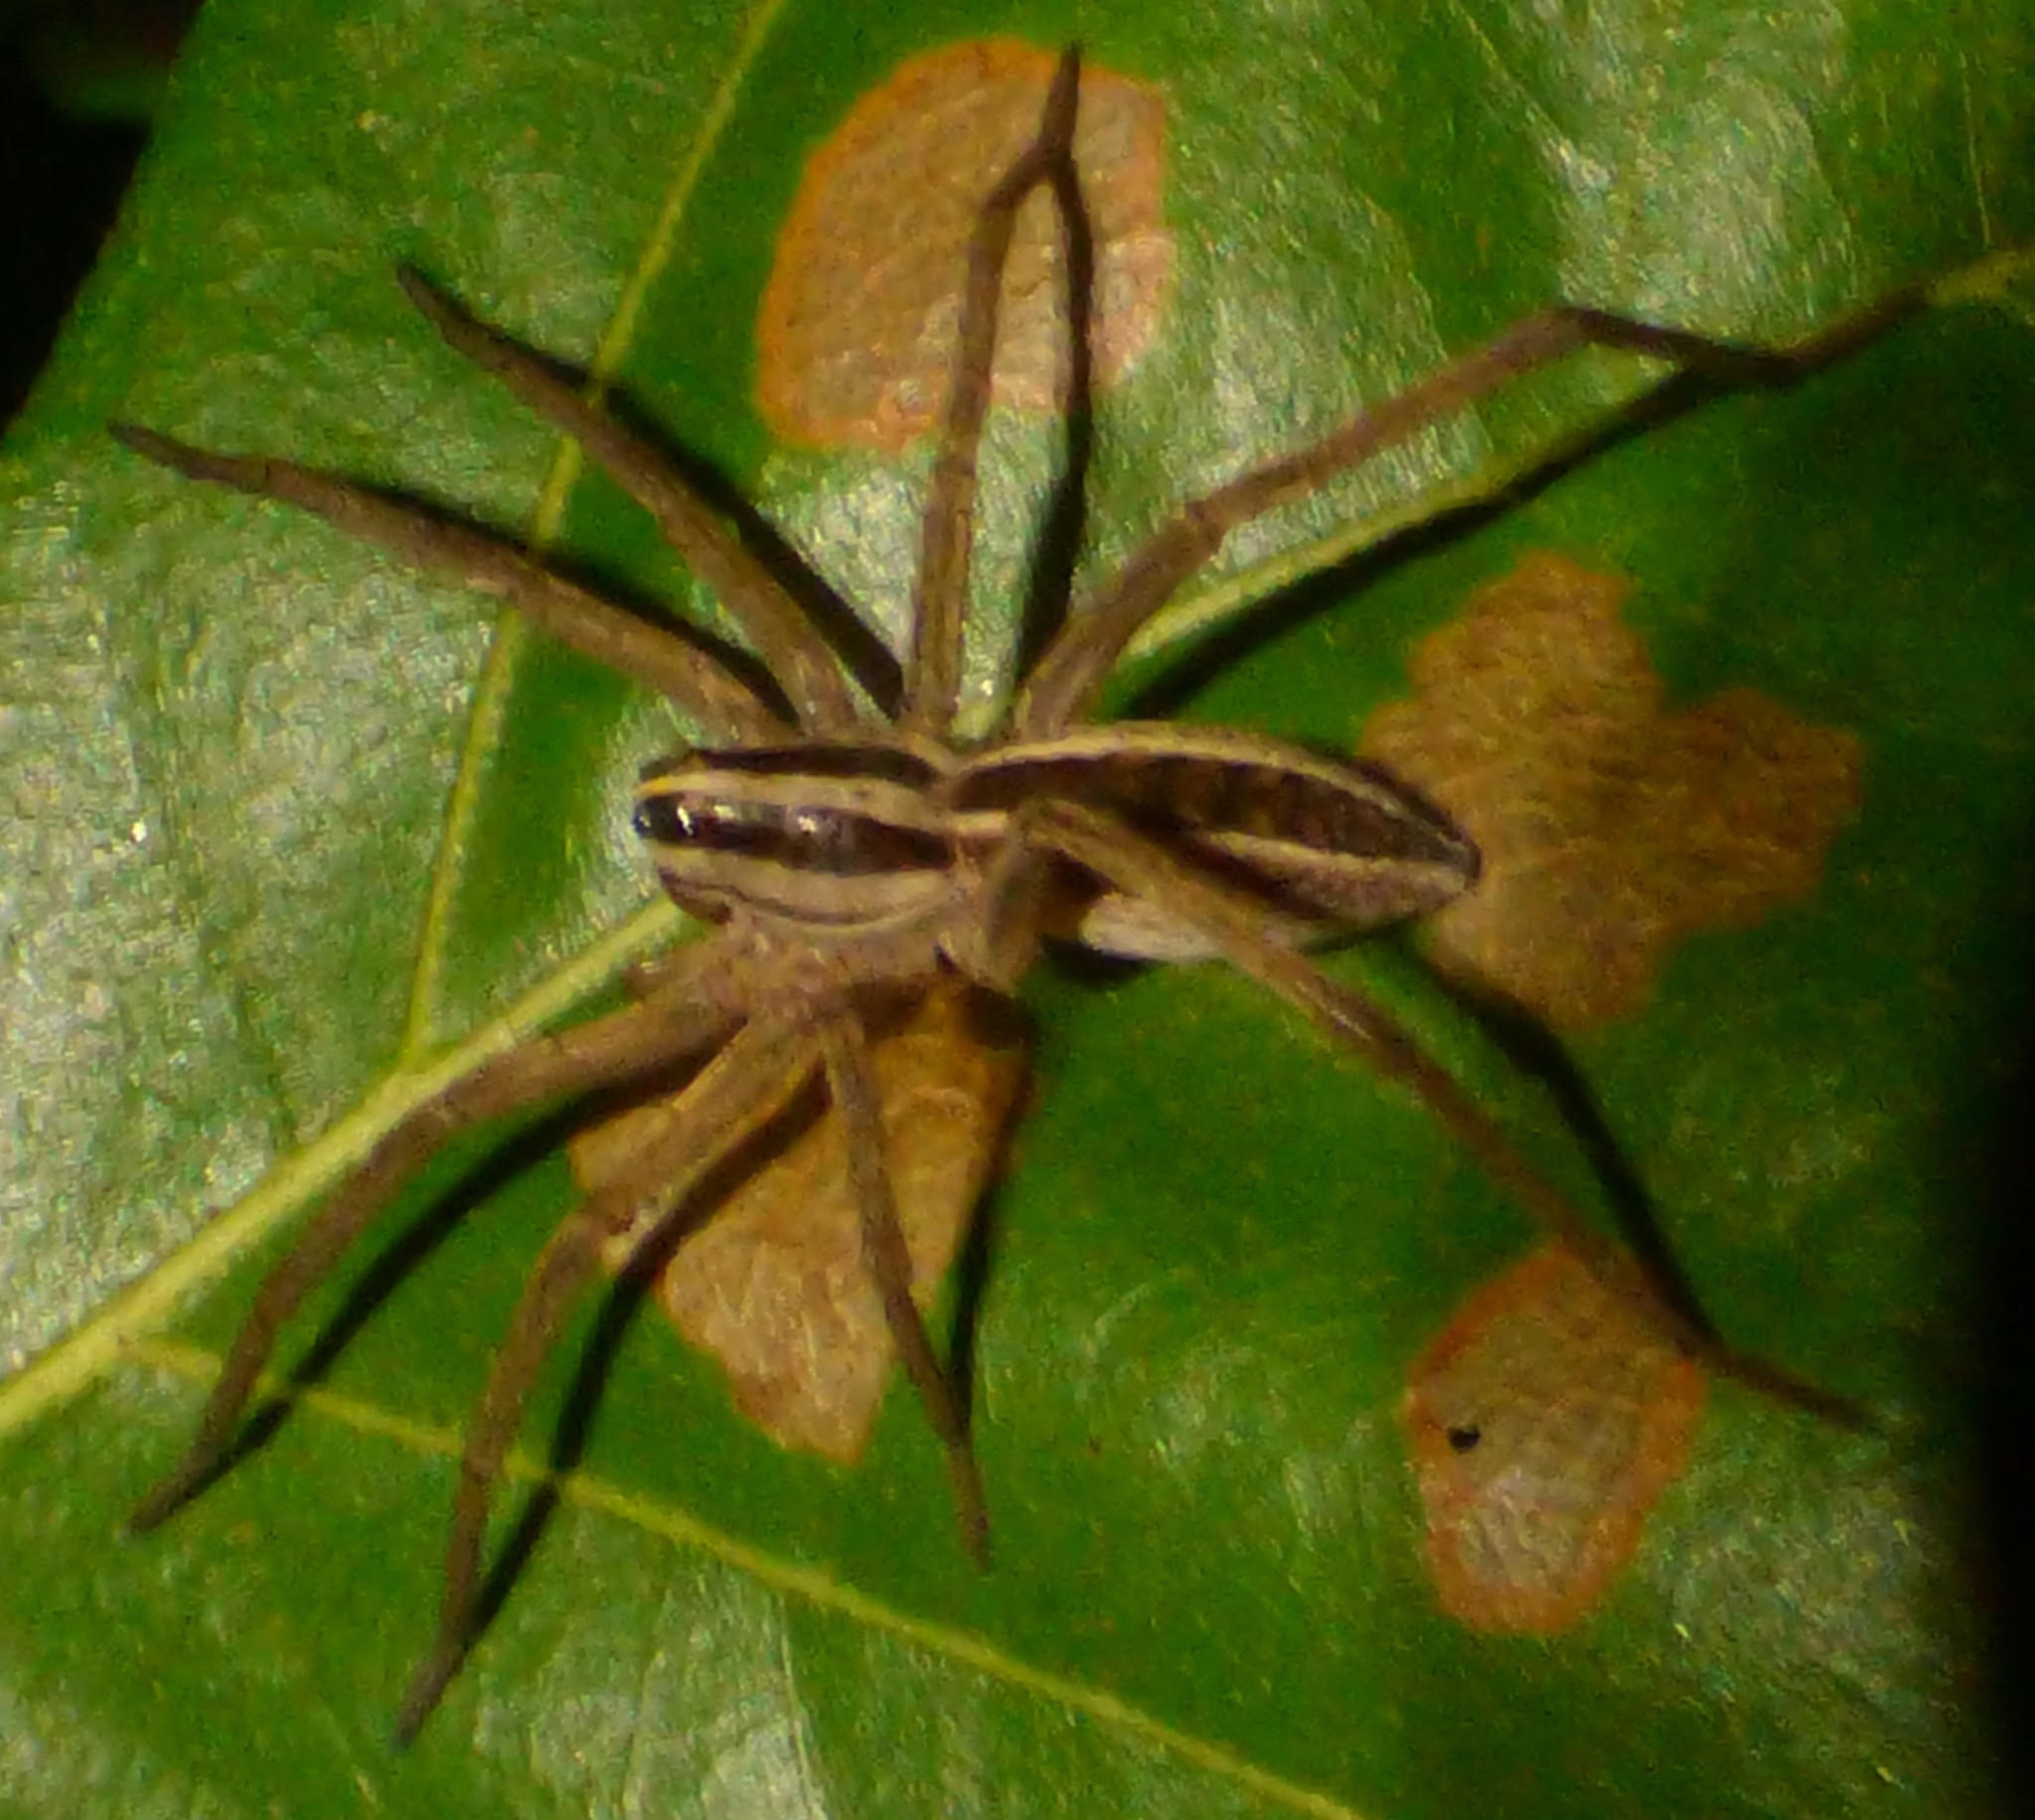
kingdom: Animalia
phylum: Arthropoda
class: Arachnida
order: Araneae
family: Lycosidae
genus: Rabidosa
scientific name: Rabidosa rabida
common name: Rabid wolf spider
